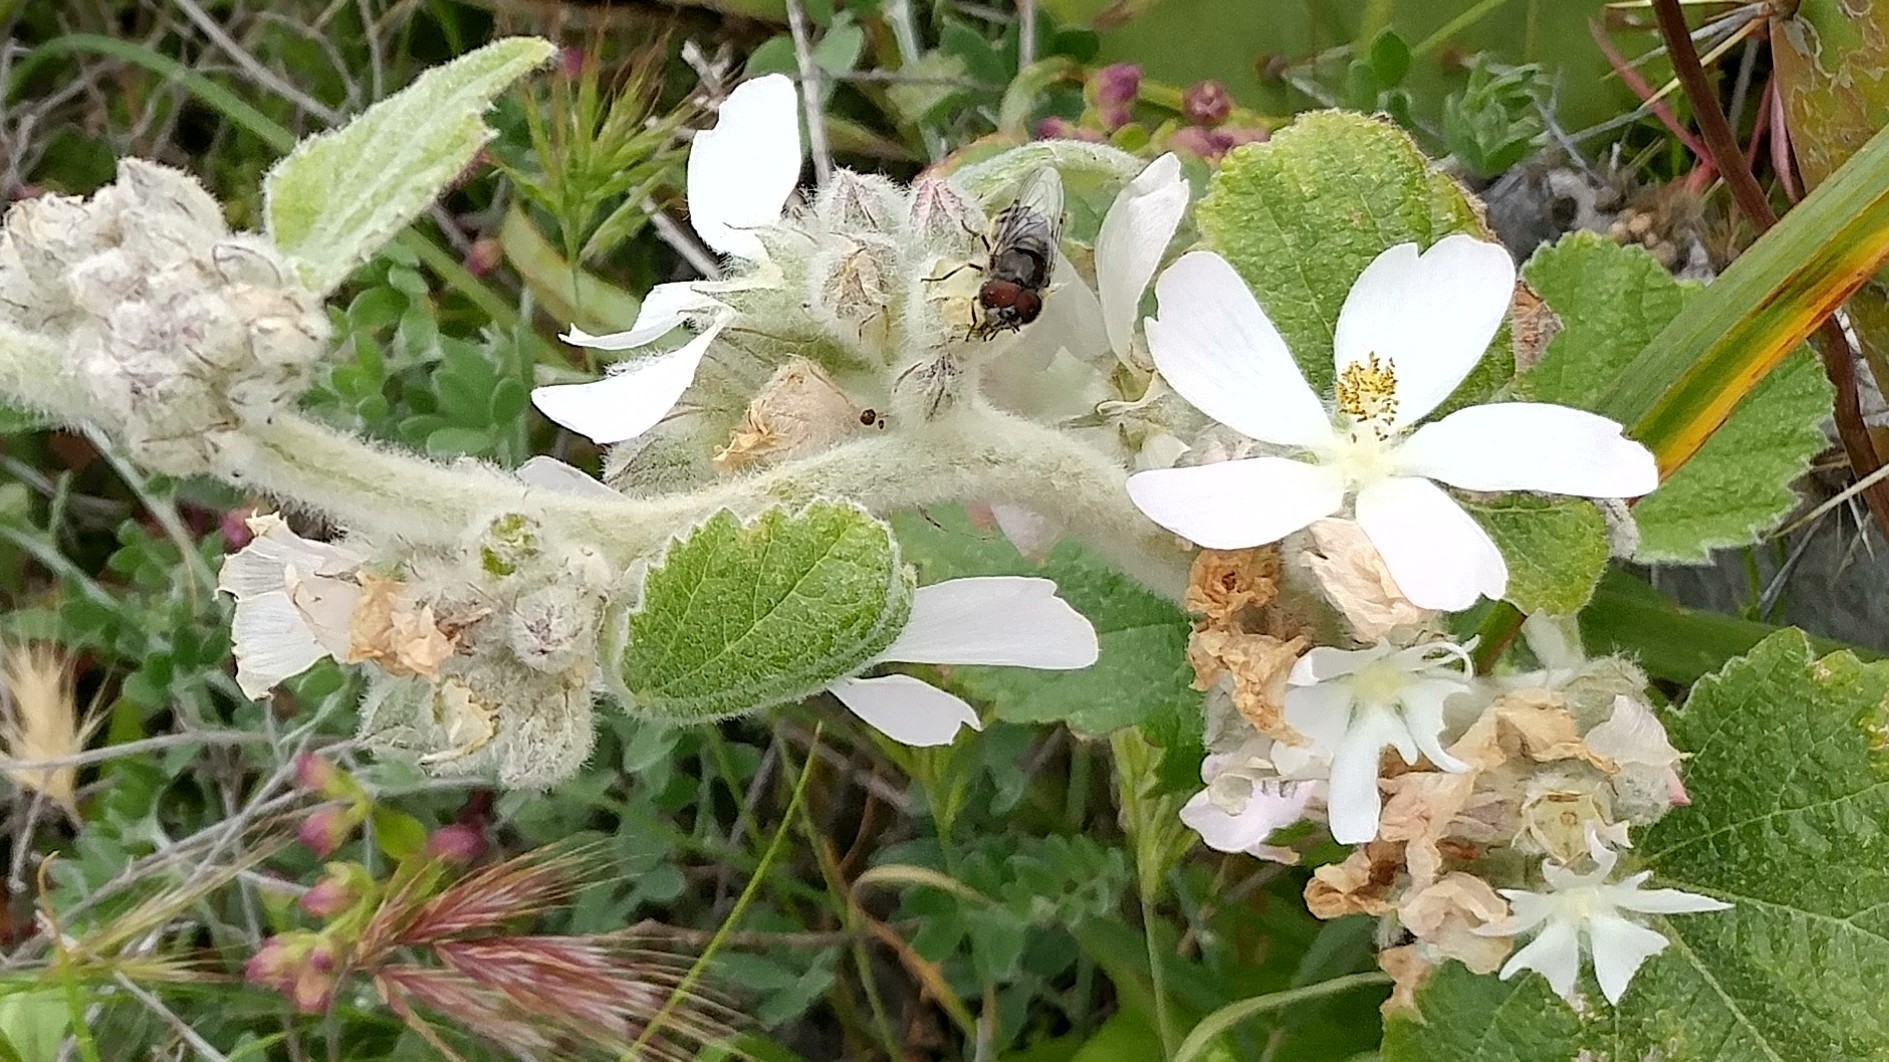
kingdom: Plantae
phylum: Tracheophyta
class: Magnoliopsida
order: Malvales
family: Malvaceae
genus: Malacothamnus
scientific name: Malacothamnus clementinus
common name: San clemente island bush-mallow
